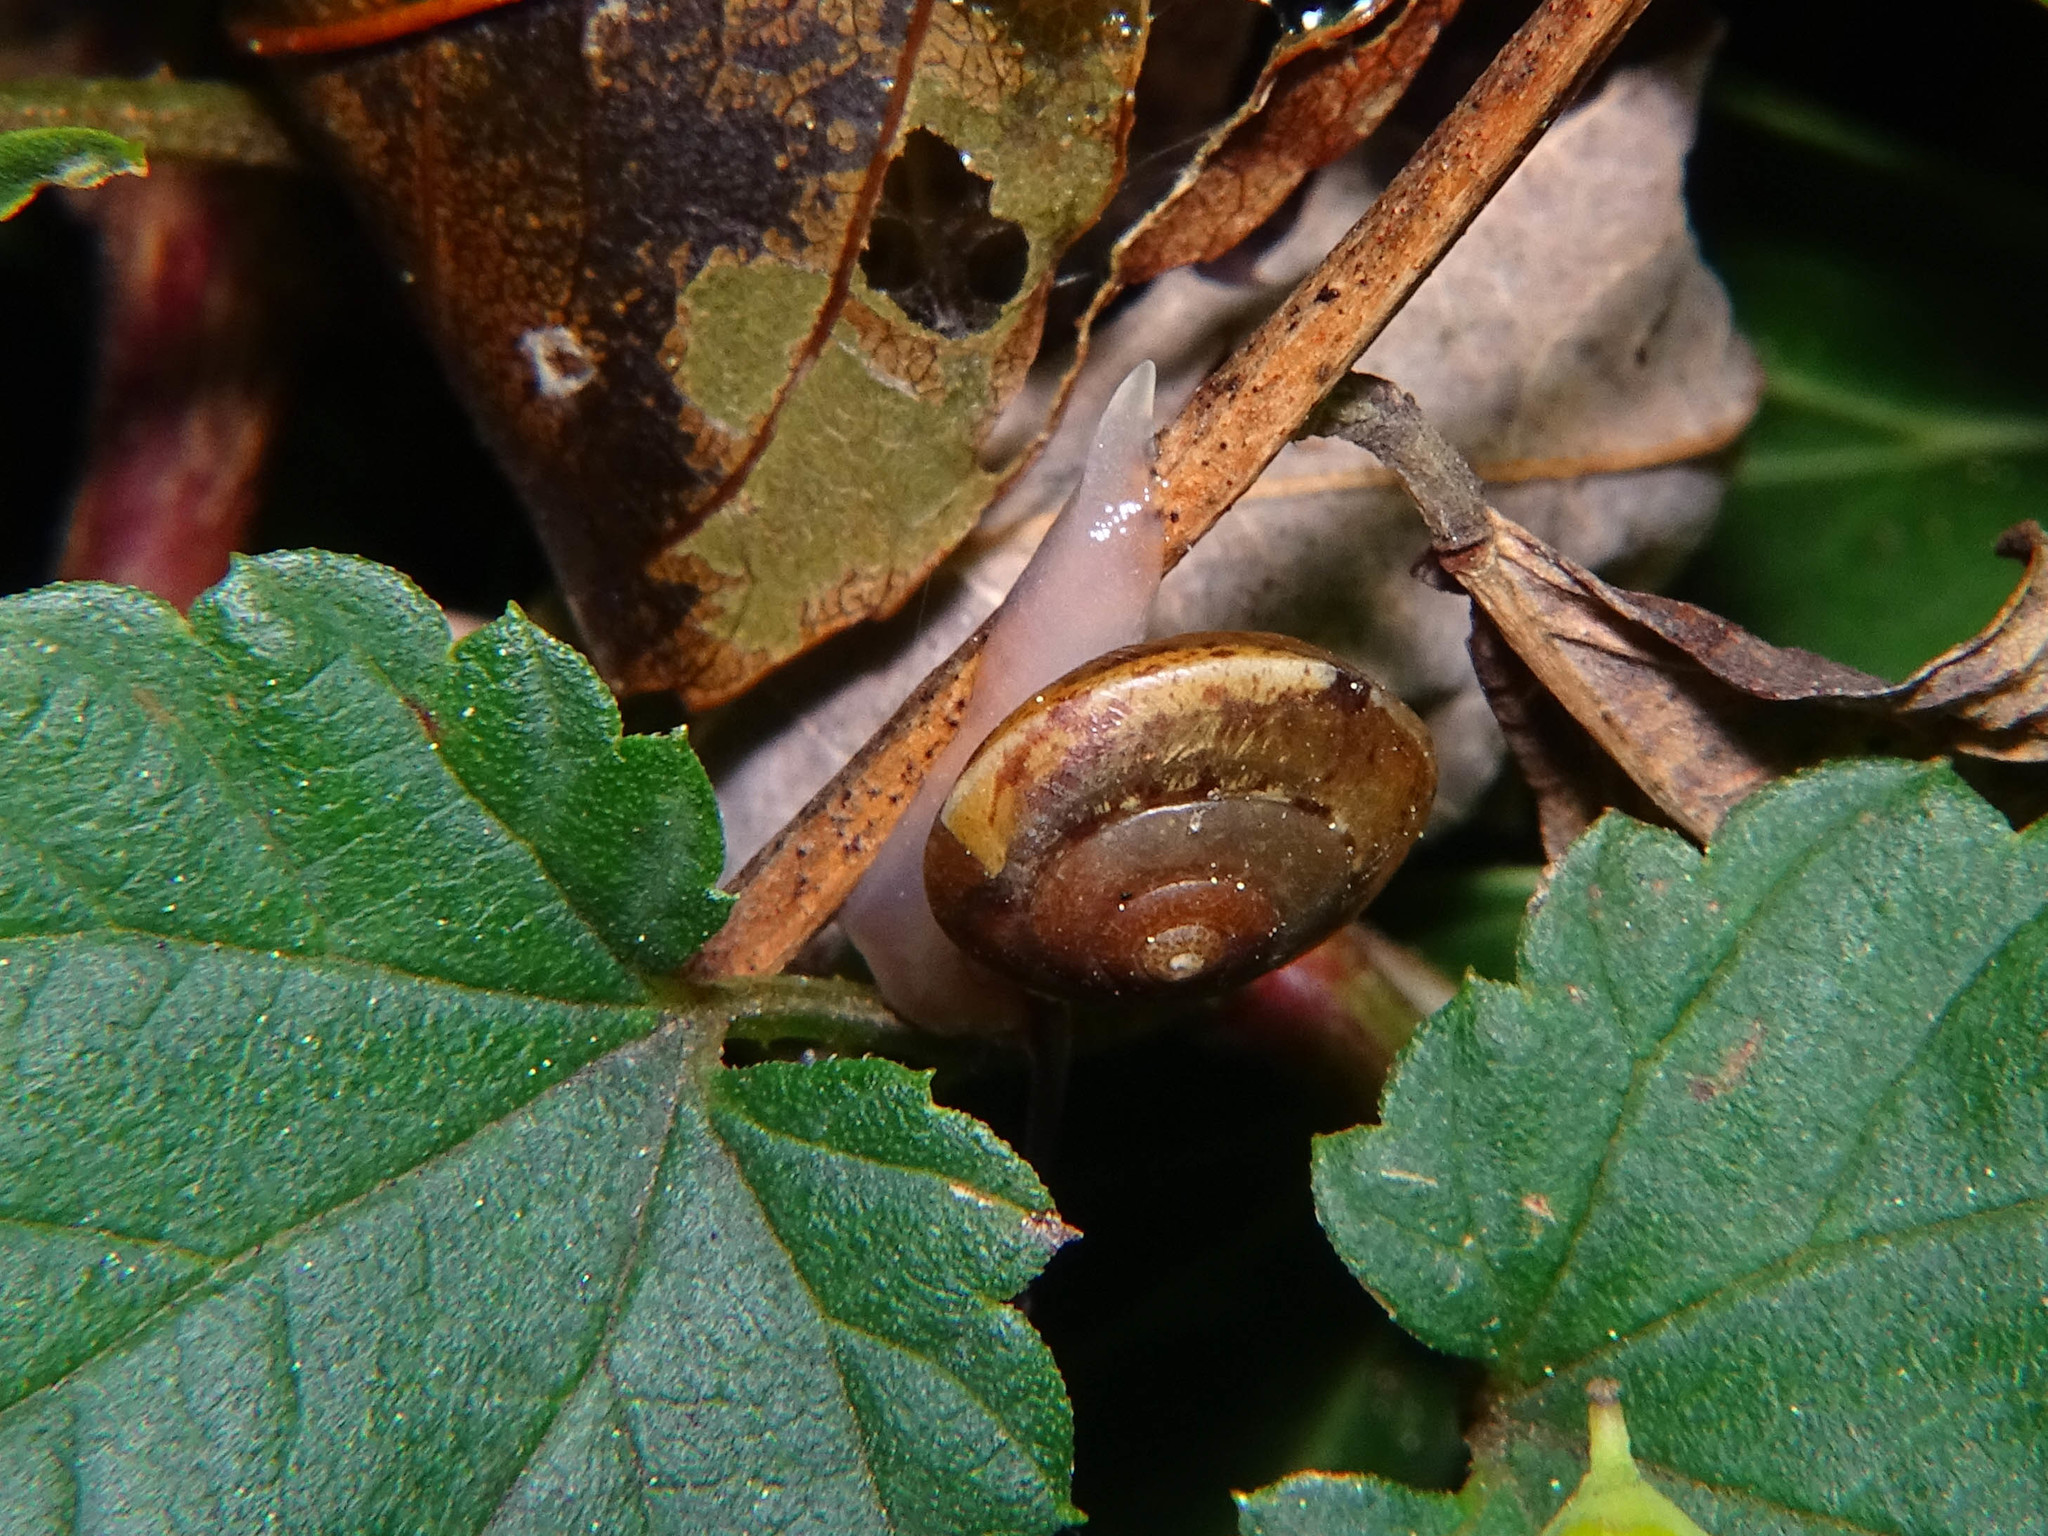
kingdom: Animalia
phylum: Mollusca
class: Gastropoda
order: Stylommatophora
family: Hygromiidae
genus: Hygromia
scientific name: Hygromia cinctella
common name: Girdled snail
